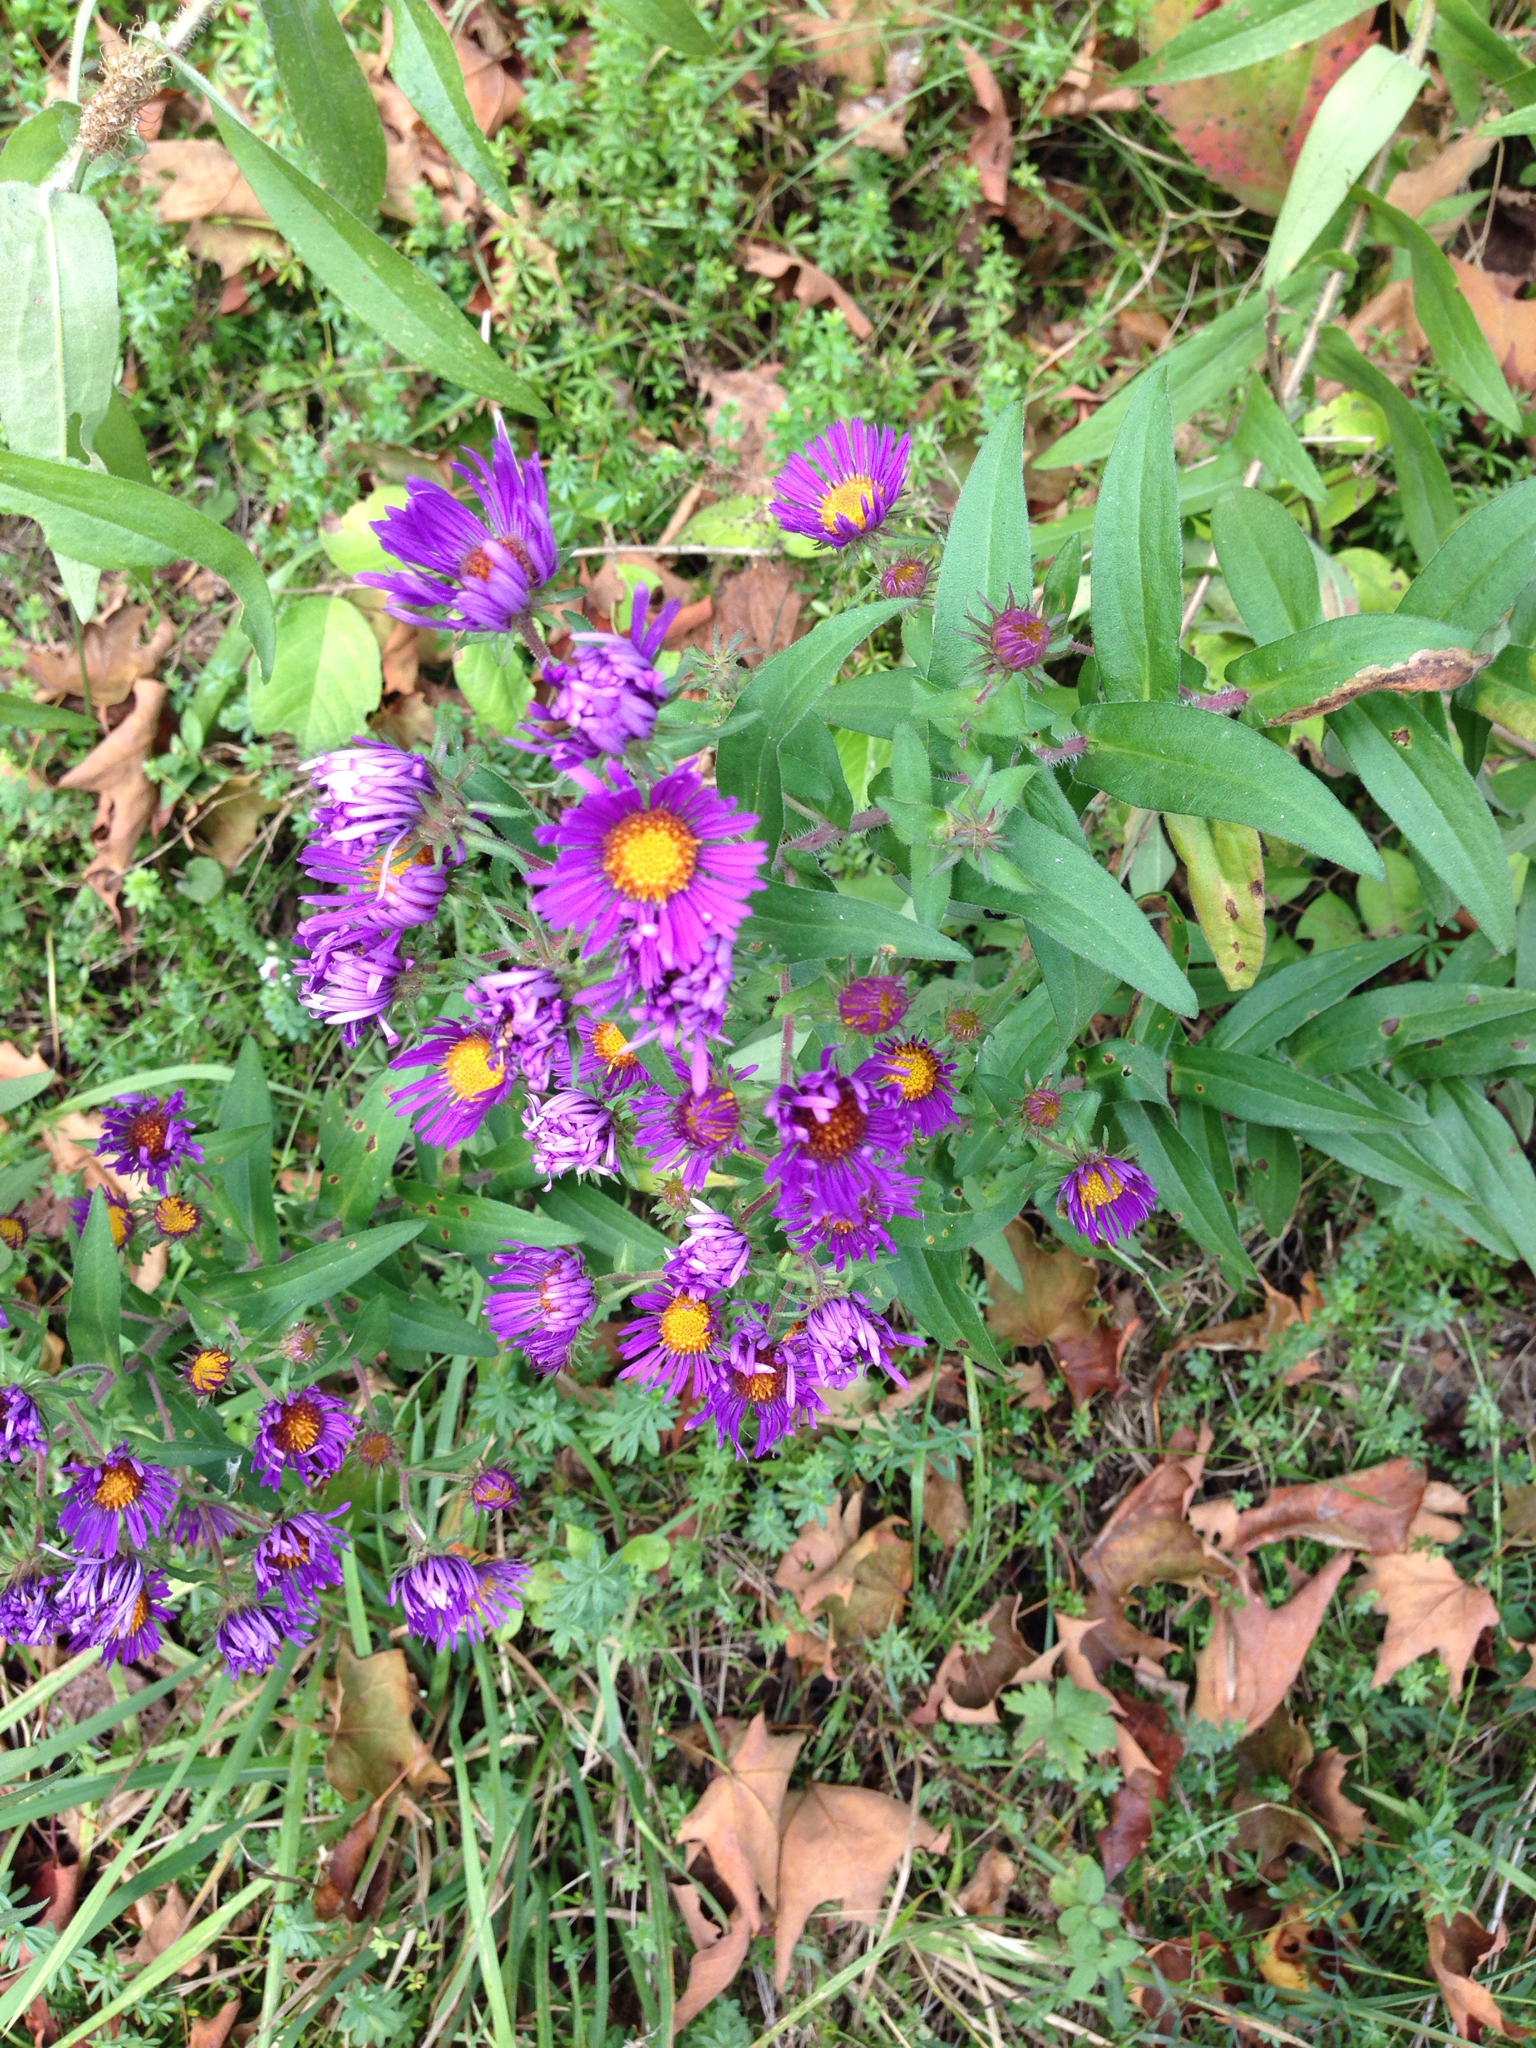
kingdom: Plantae
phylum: Tracheophyta
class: Magnoliopsida
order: Asterales
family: Asteraceae
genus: Symphyotrichum
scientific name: Symphyotrichum novae-angliae
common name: Michaelmas daisy
